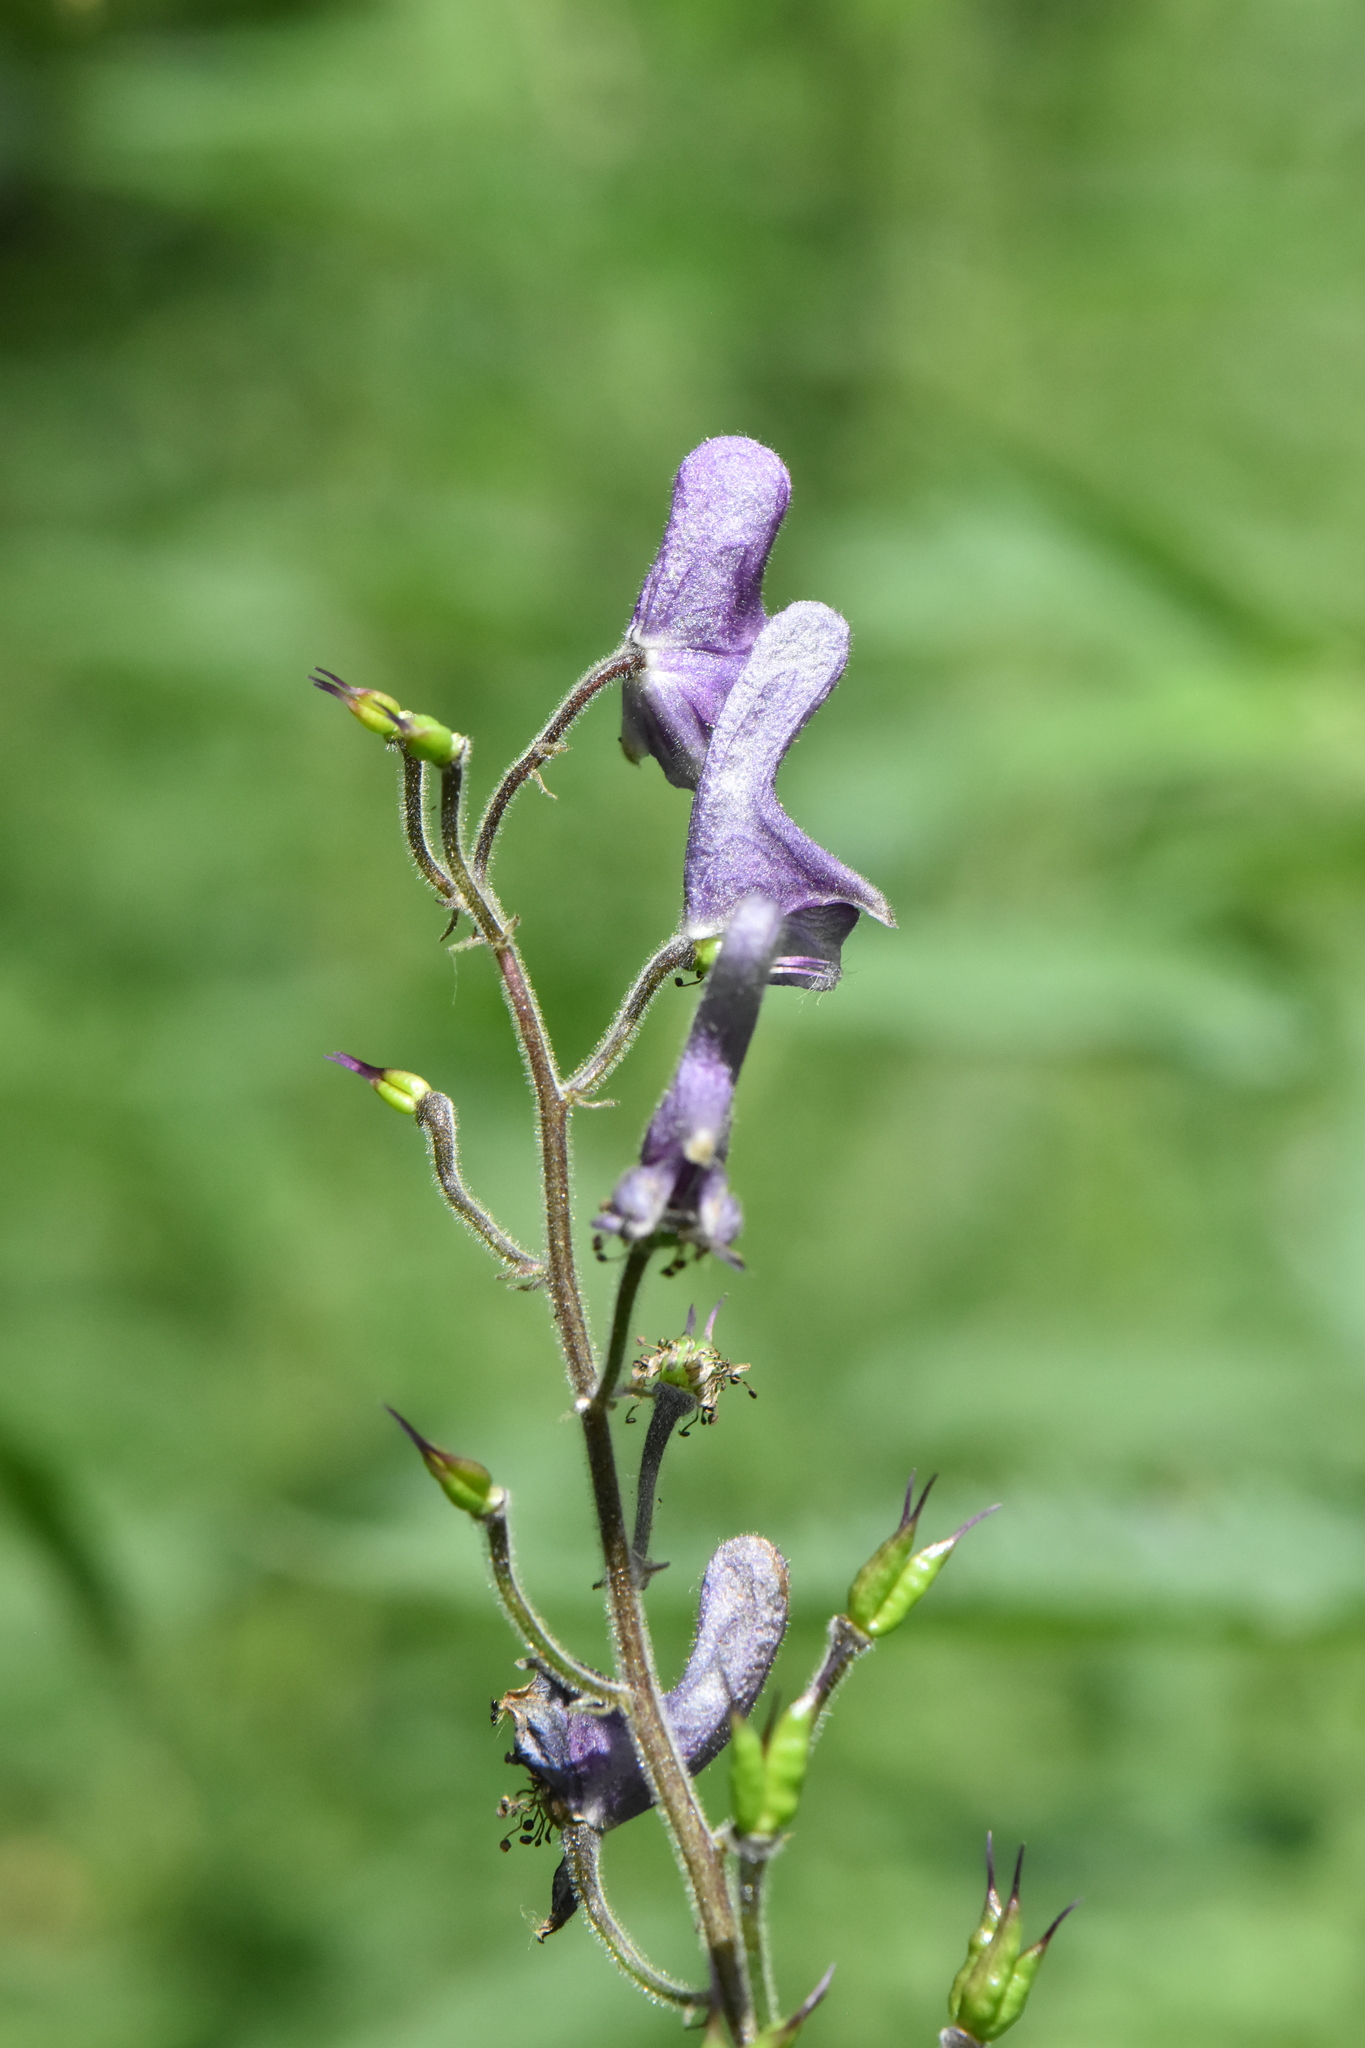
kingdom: Plantae
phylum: Tracheophyta
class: Magnoliopsida
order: Ranunculales
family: Ranunculaceae
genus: Aconitum
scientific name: Aconitum septentrionale
